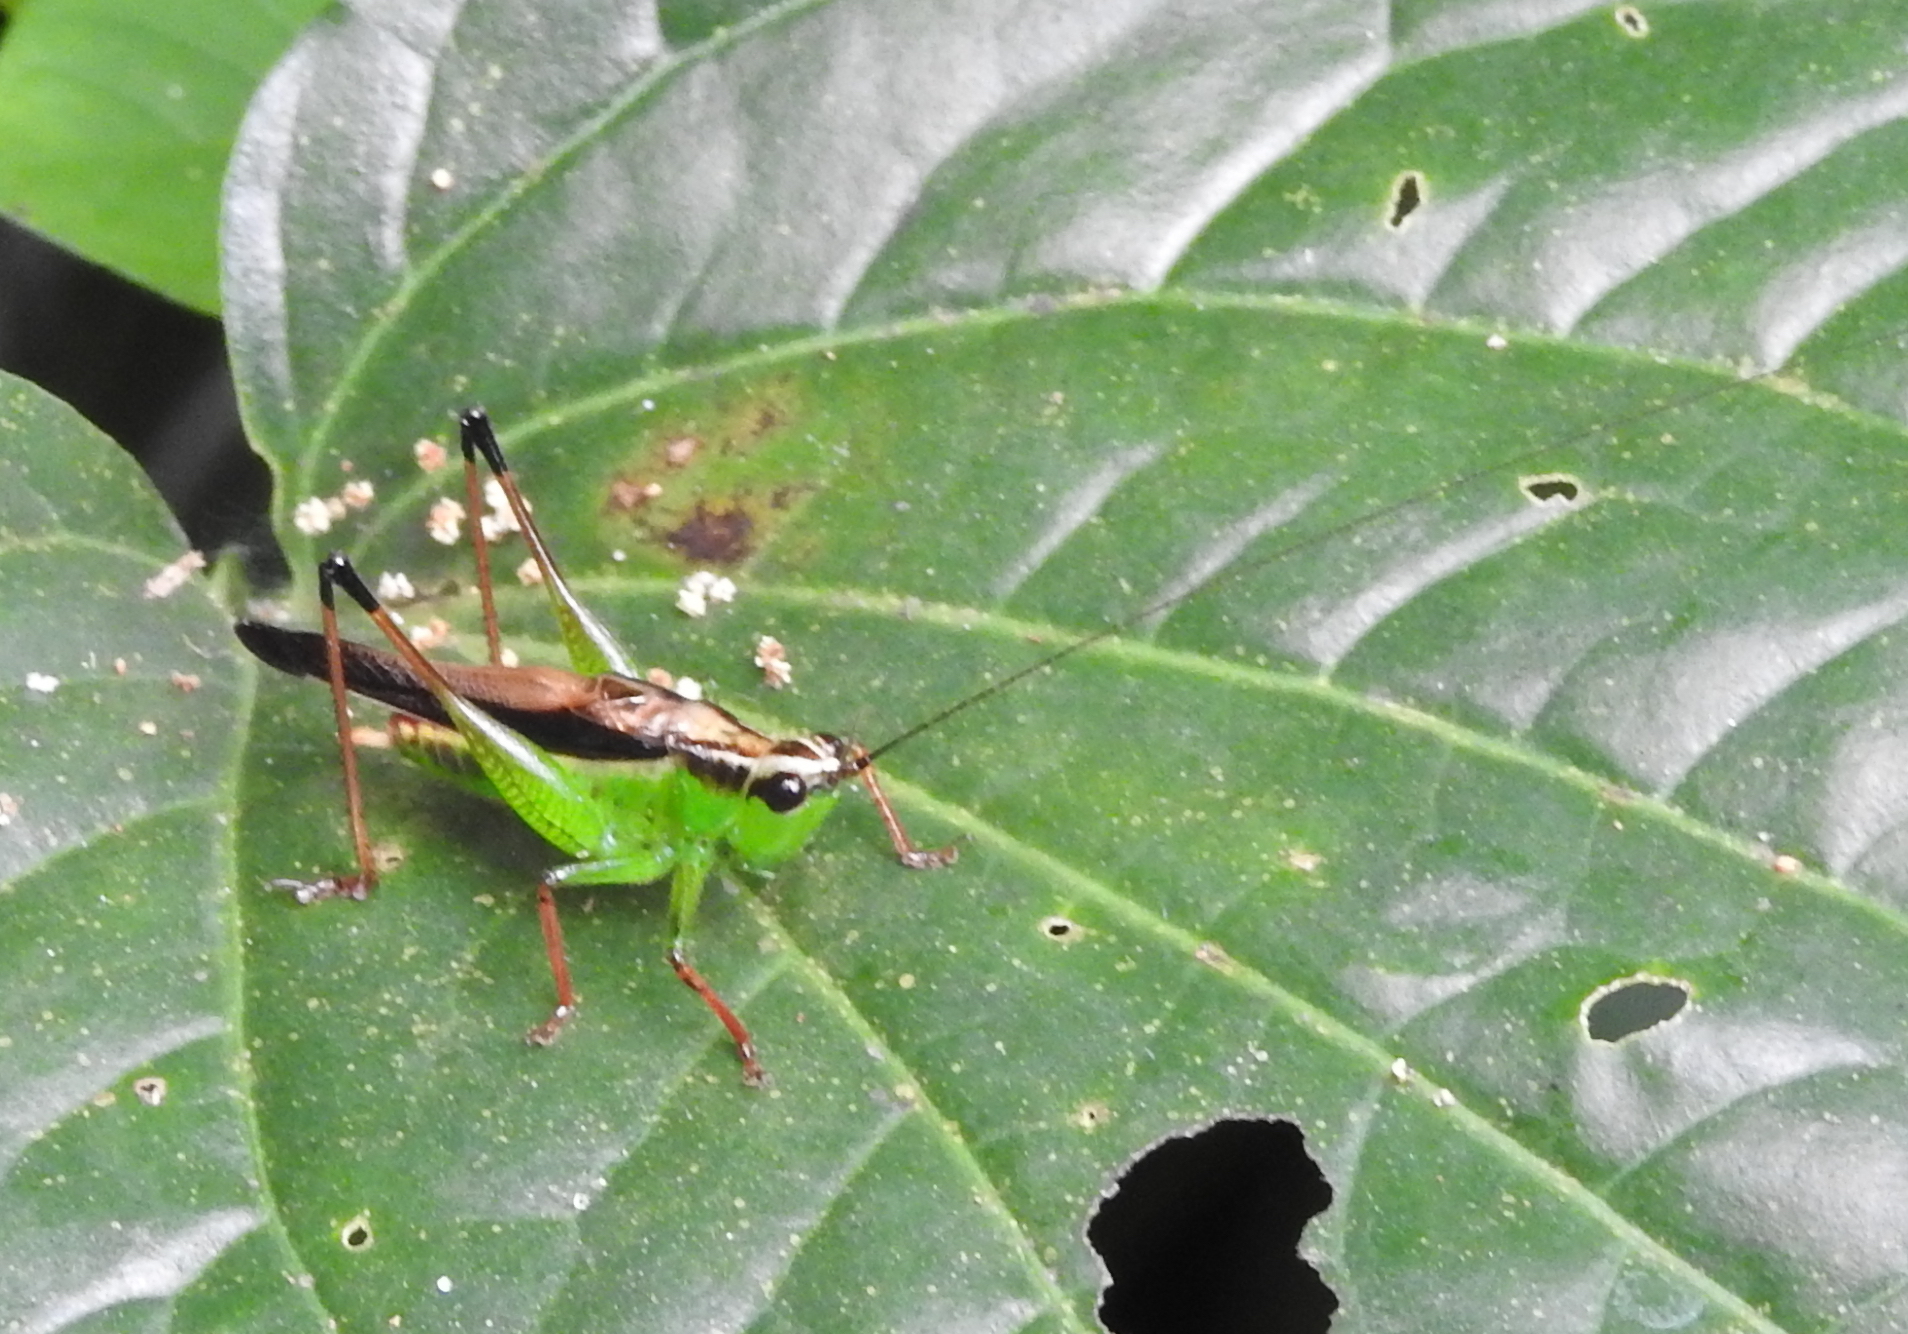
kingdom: Animalia
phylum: Arthropoda
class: Insecta
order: Orthoptera
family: Tettigoniidae
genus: Conocephalus
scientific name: Conocephalus melaenus
